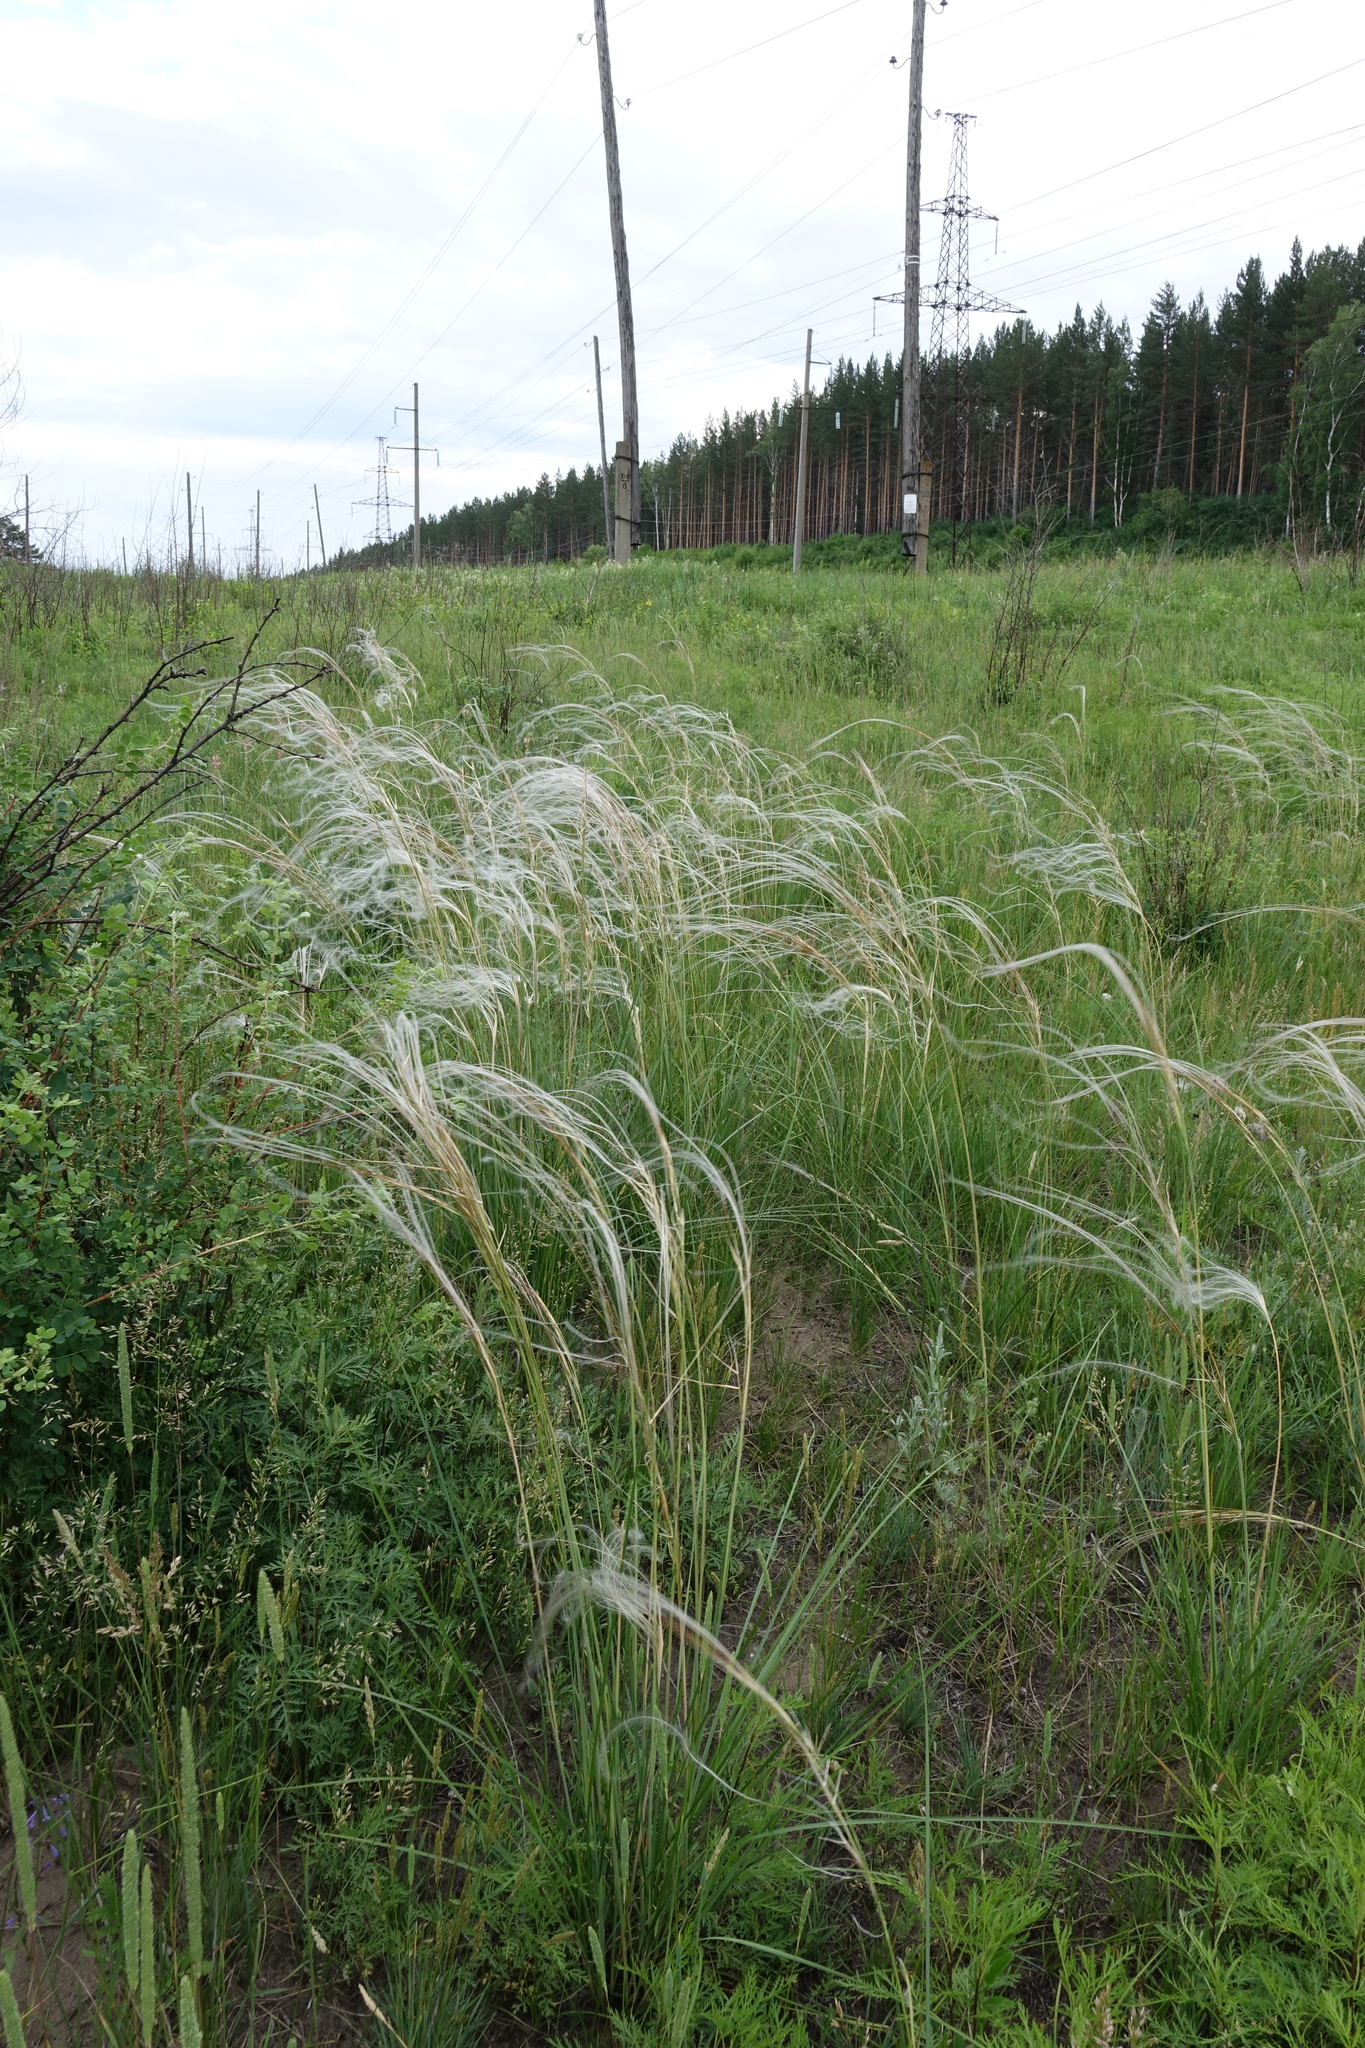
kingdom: Plantae
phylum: Tracheophyta
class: Liliopsida
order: Poales
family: Poaceae
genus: Stipa
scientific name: Stipa pennata
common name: European feather grass
